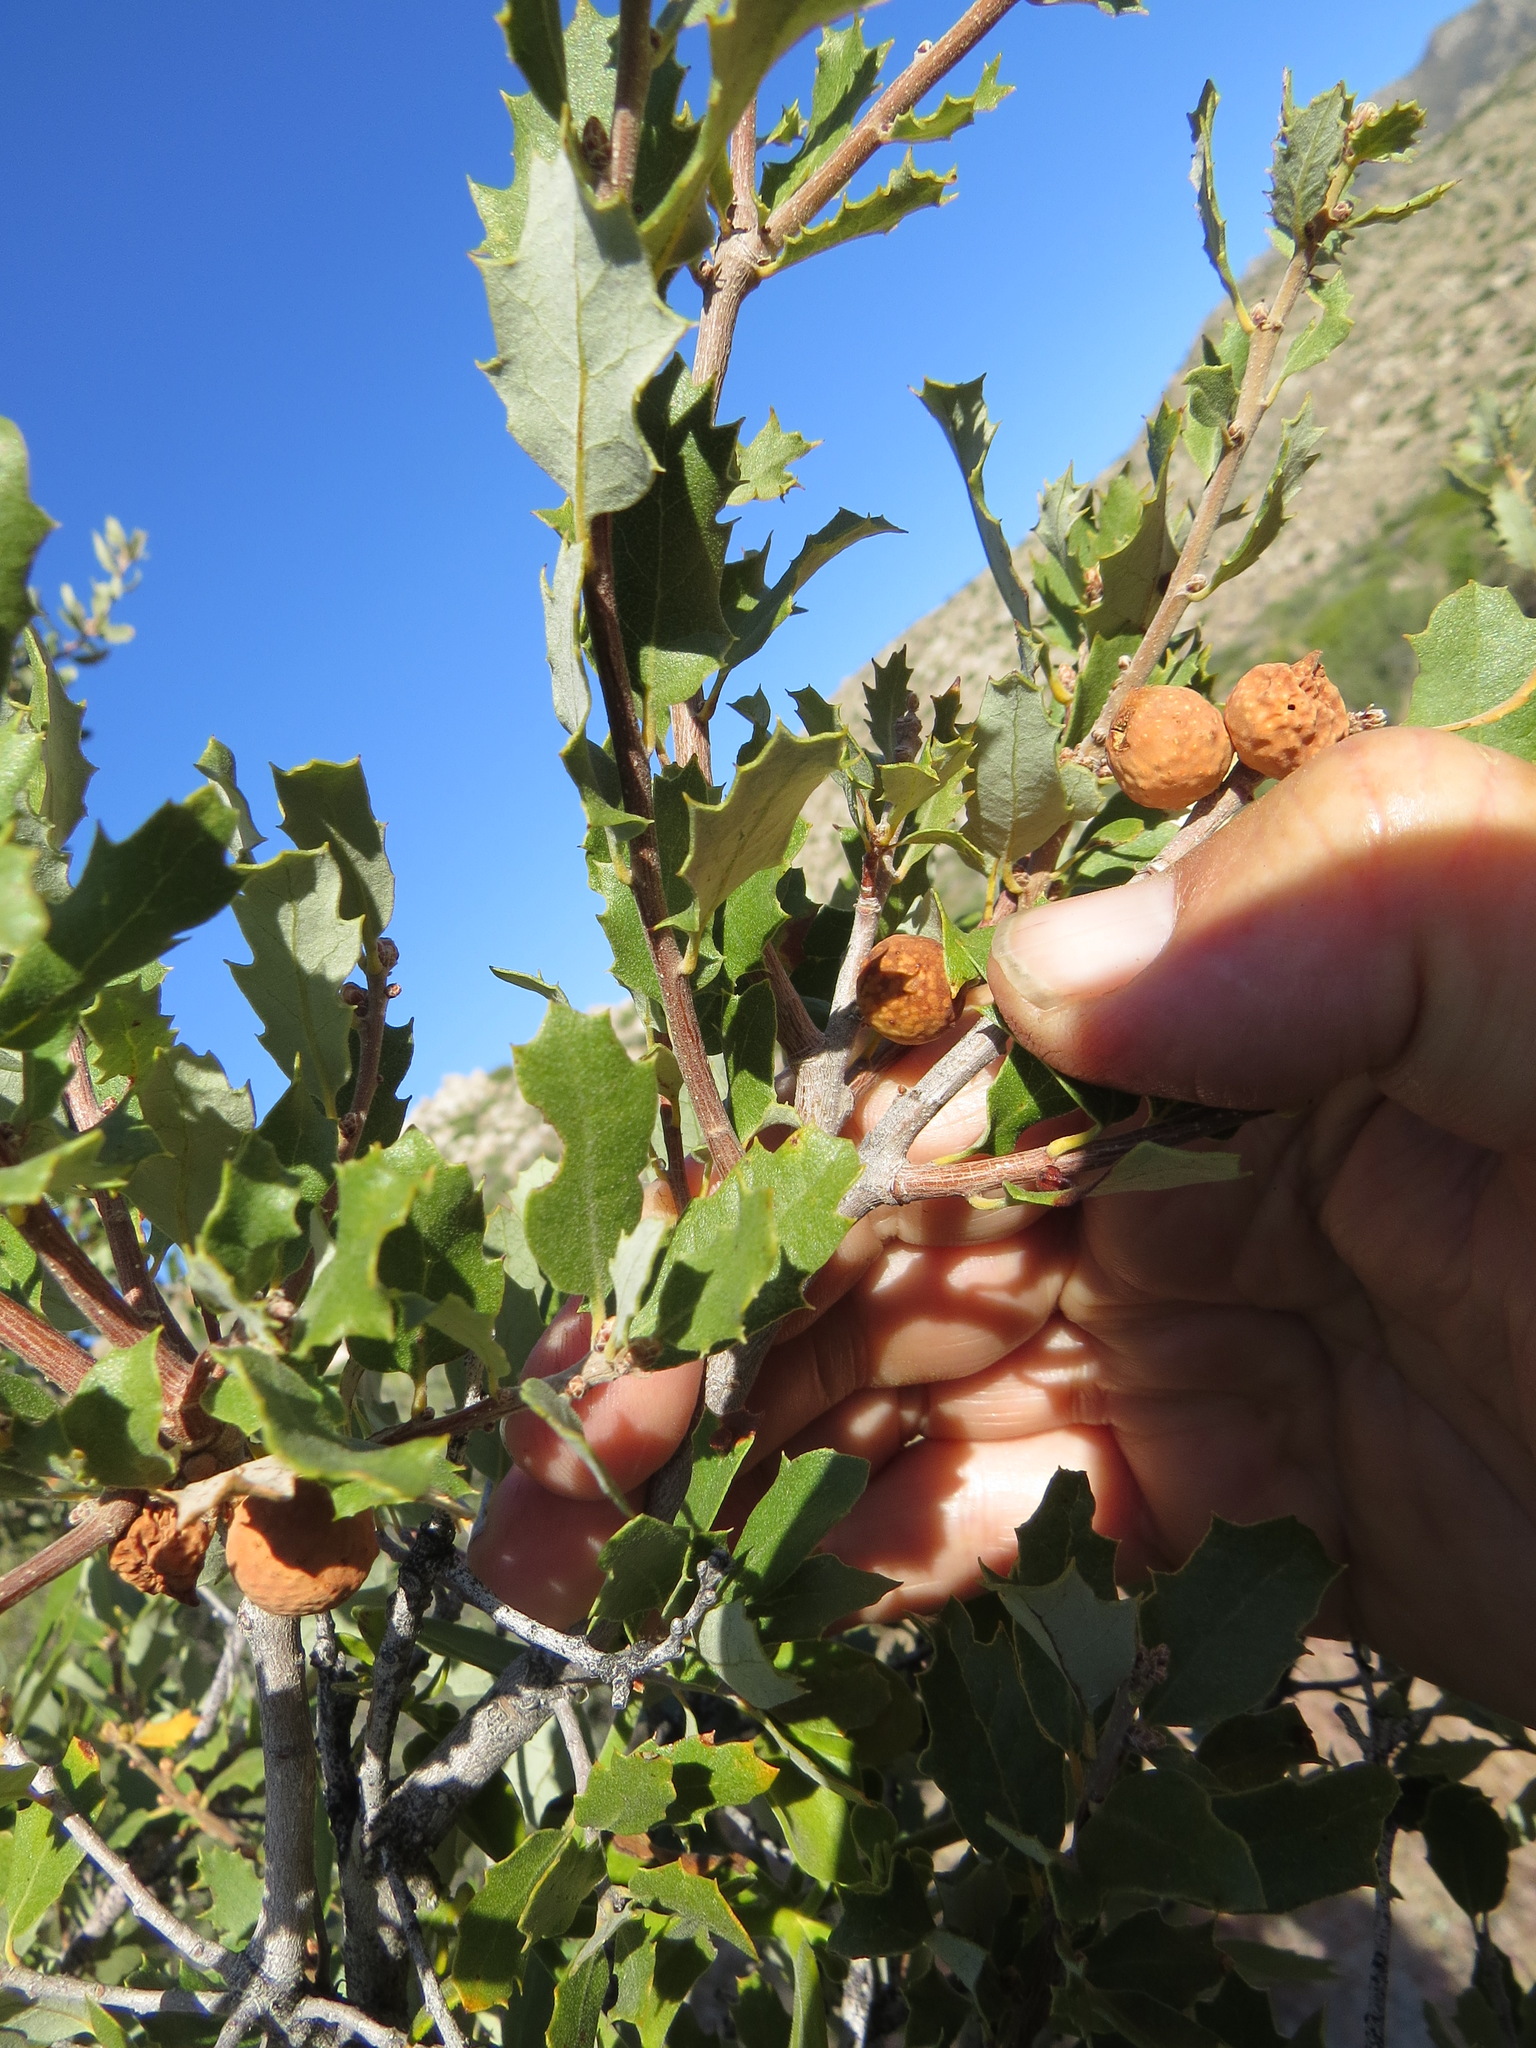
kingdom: Animalia
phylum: Arthropoda
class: Insecta
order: Hymenoptera
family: Cynipidae
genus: Burnettweldia
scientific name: Burnettweldia
